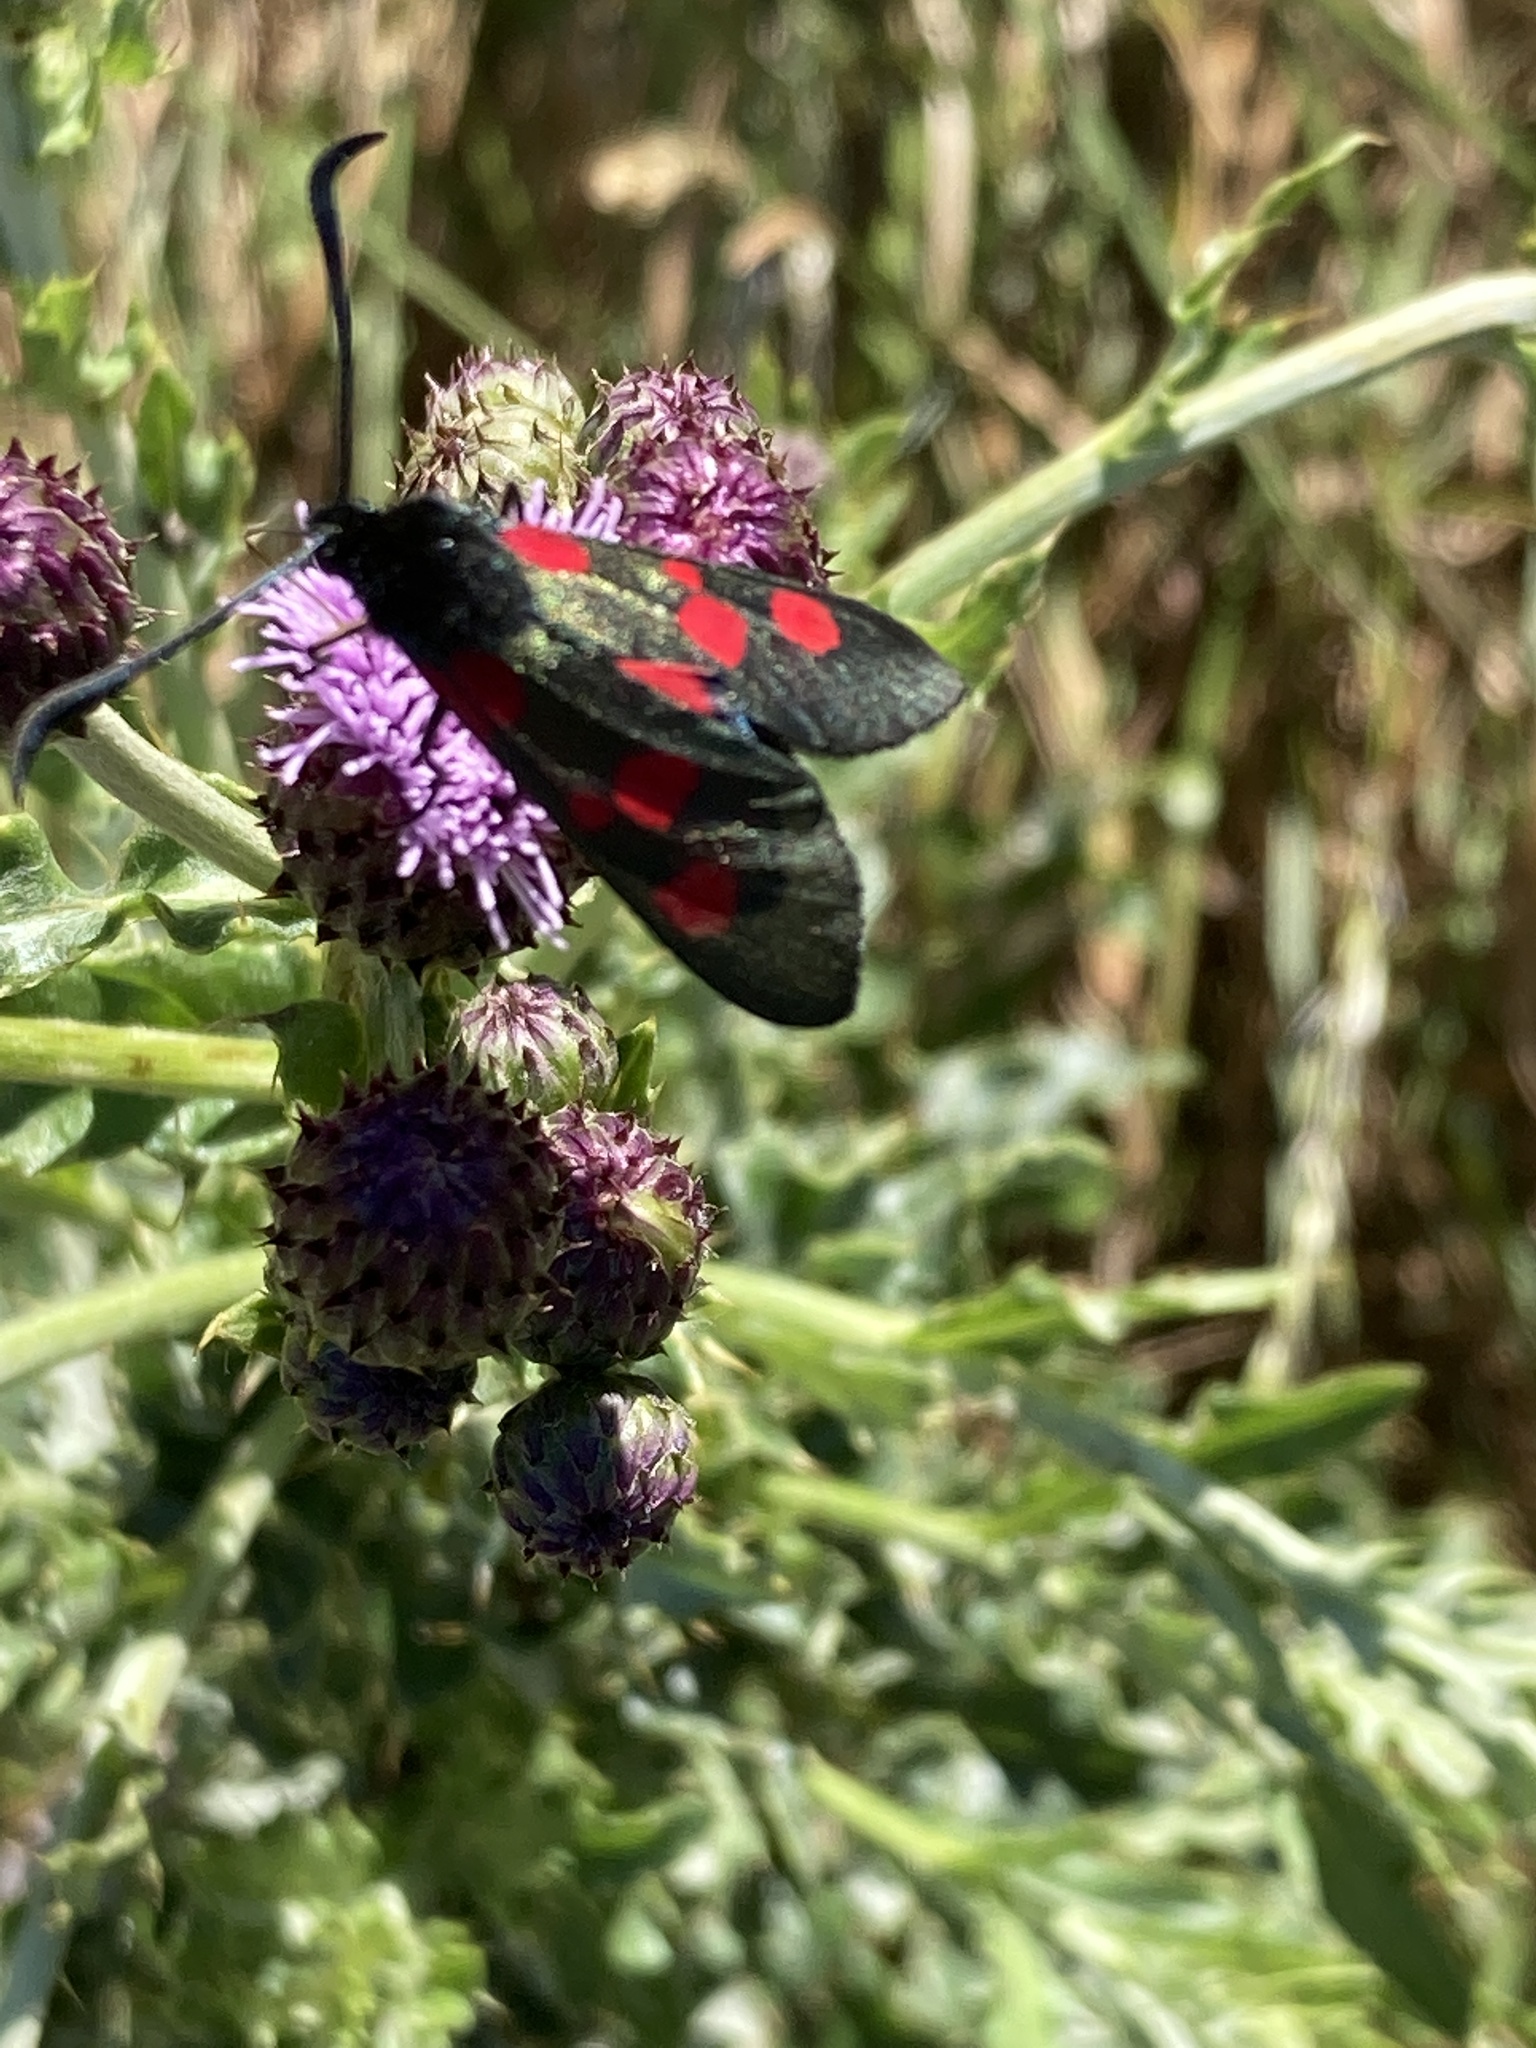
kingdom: Animalia
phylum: Arthropoda
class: Insecta
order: Lepidoptera
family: Zygaenidae
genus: Zygaena
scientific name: Zygaena lonicerae
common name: Narrow-bordered five-spot burnet
